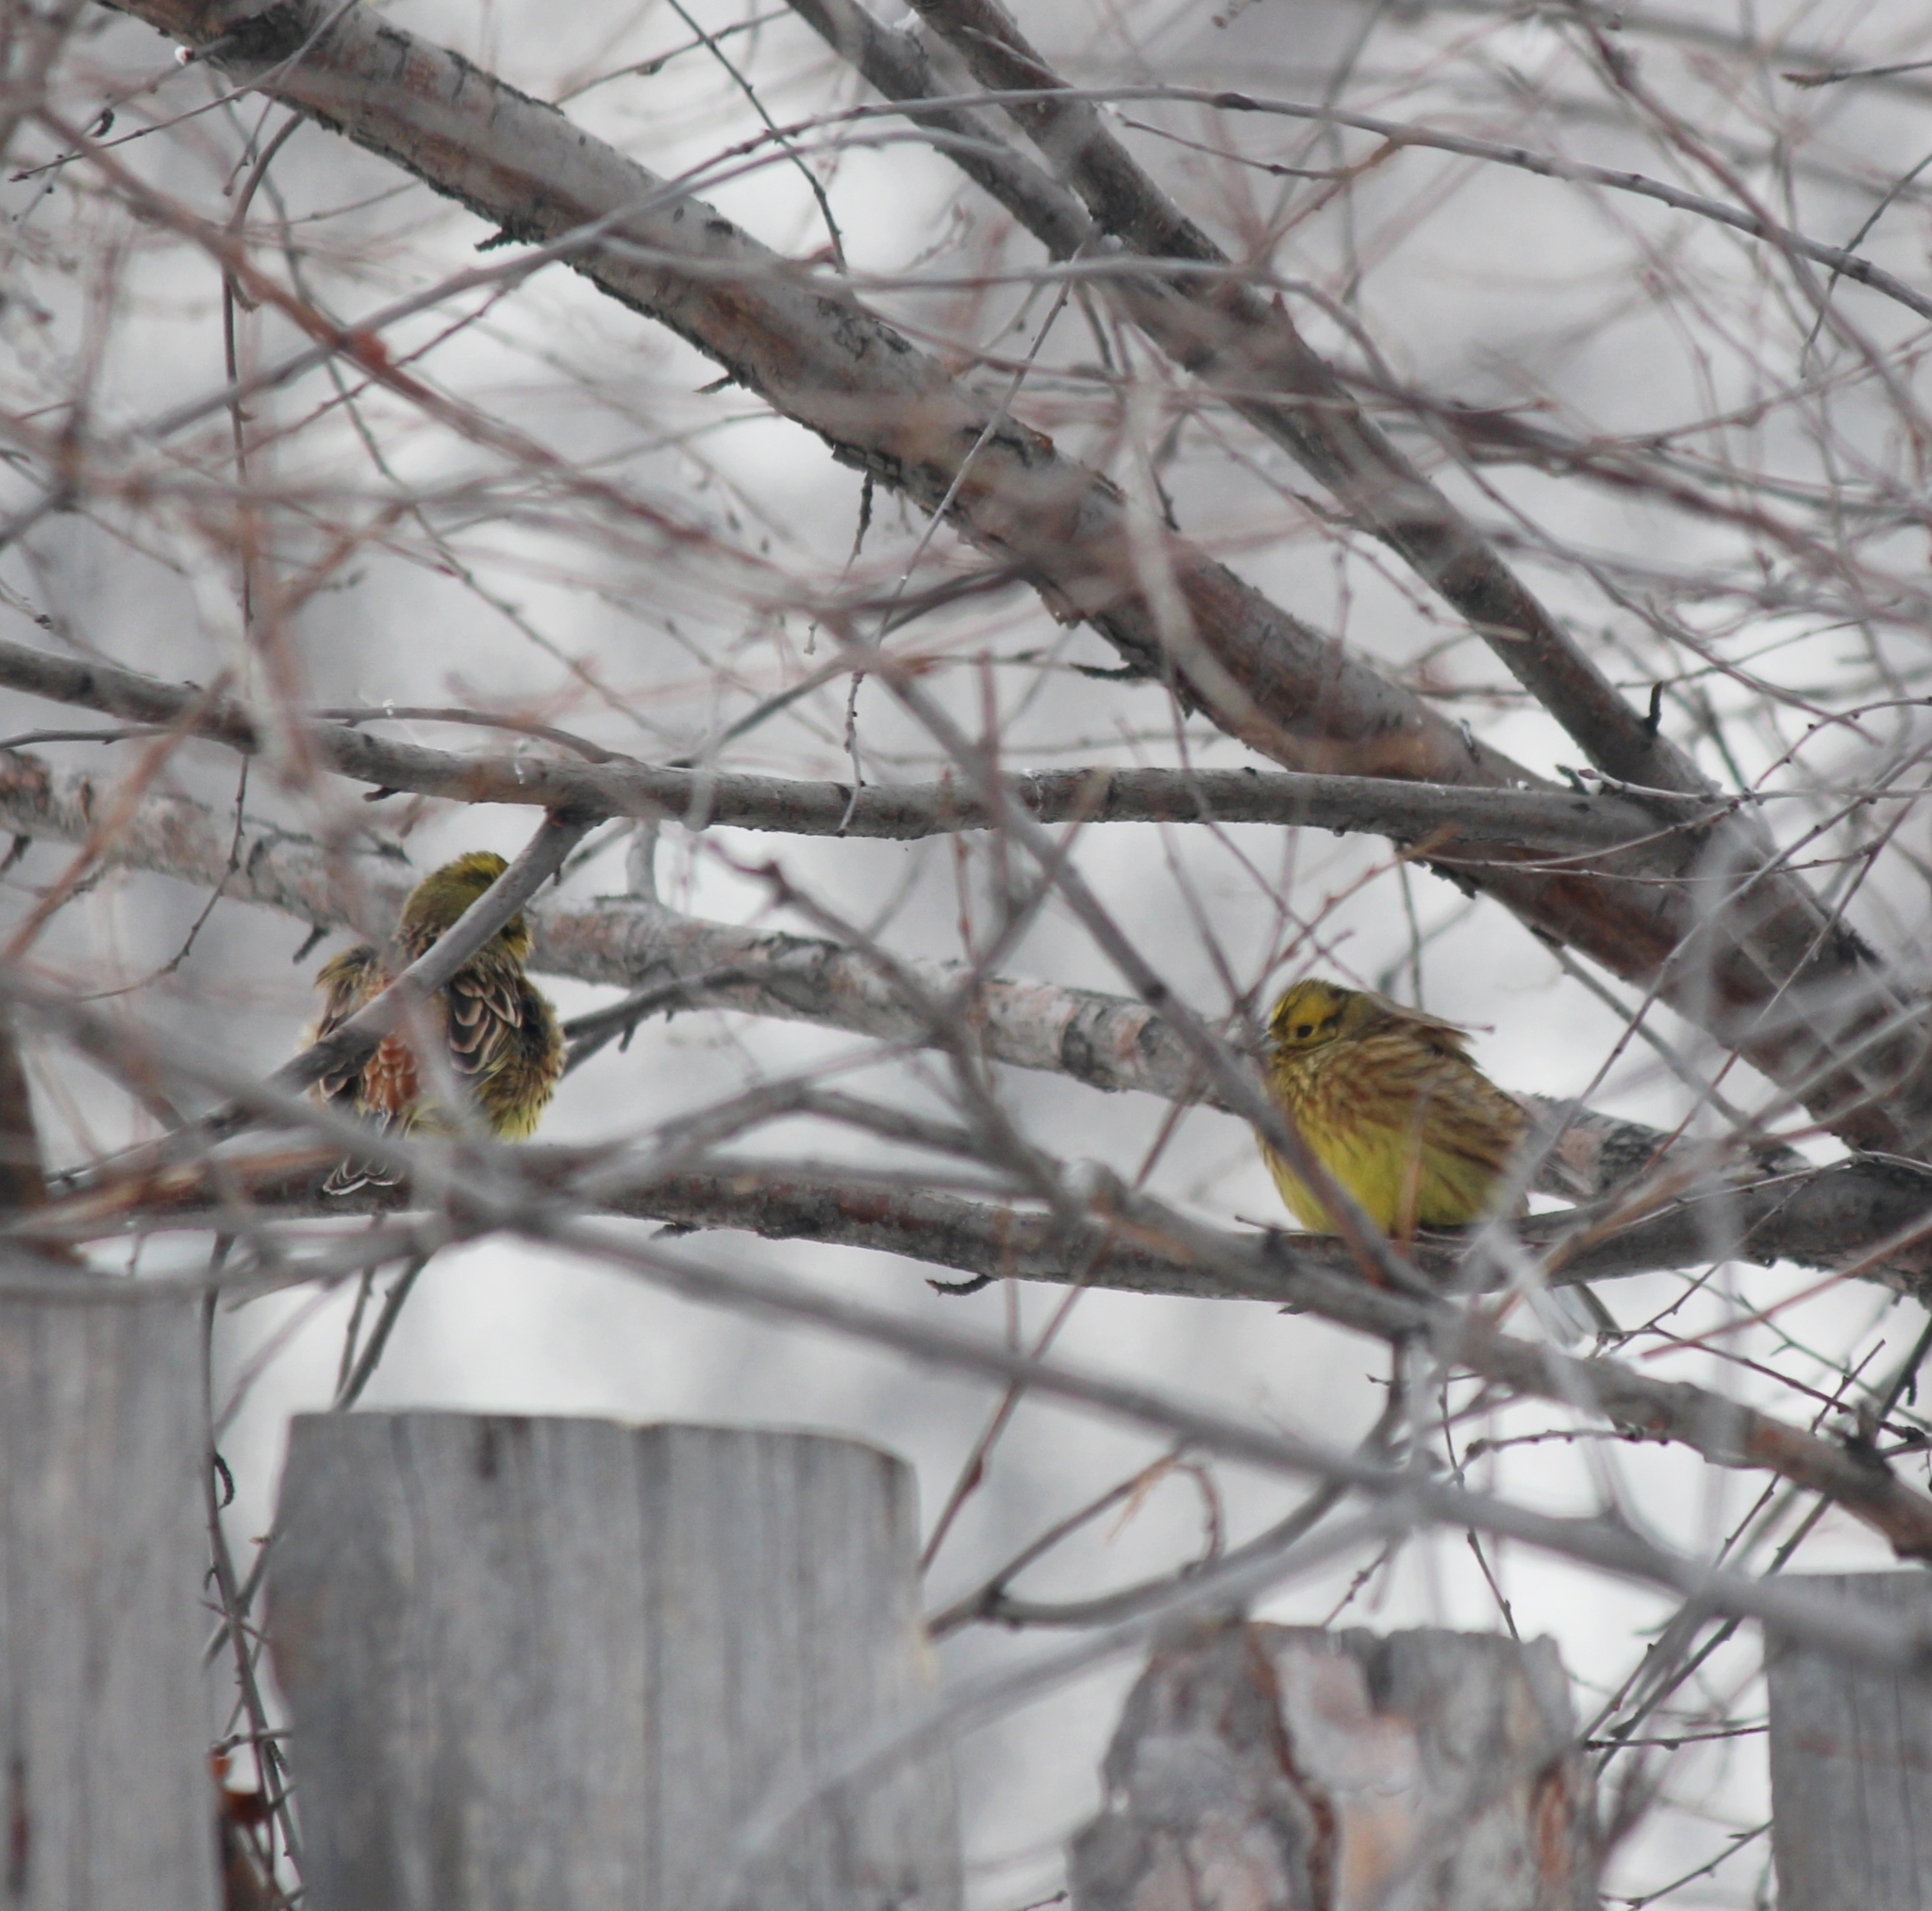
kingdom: Animalia
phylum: Chordata
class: Aves
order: Passeriformes
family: Emberizidae
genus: Emberiza
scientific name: Emberiza citrinella
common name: Yellowhammer
